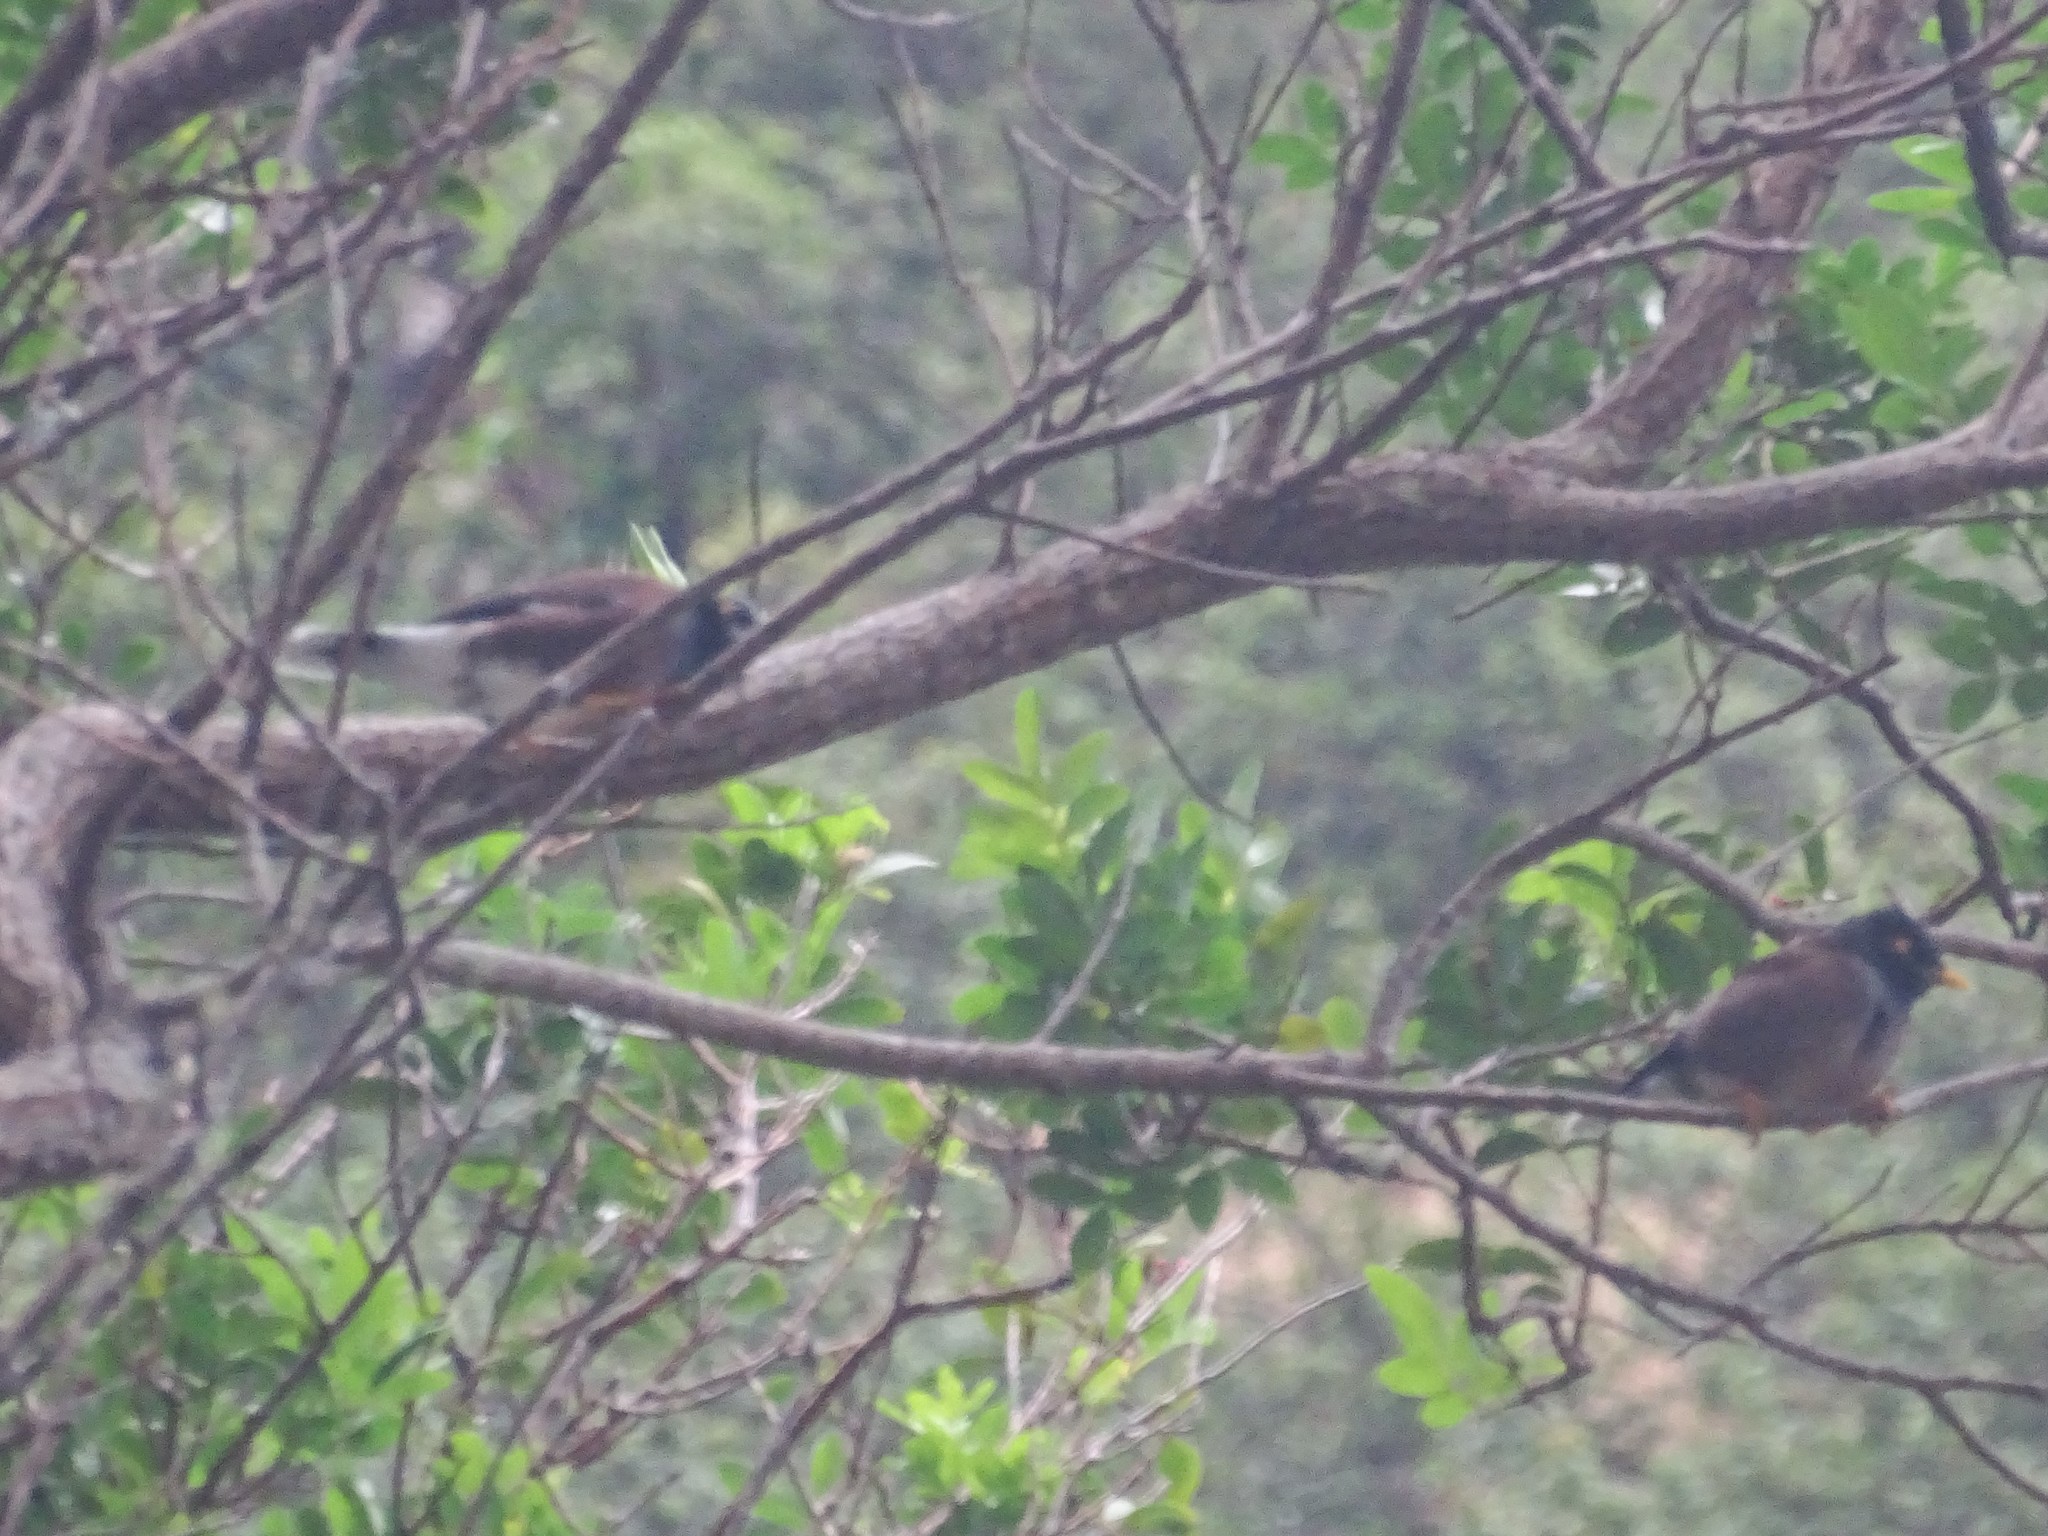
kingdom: Animalia
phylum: Chordata
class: Aves
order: Passeriformes
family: Sturnidae
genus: Acridotheres
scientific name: Acridotheres tristis
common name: Common myna
